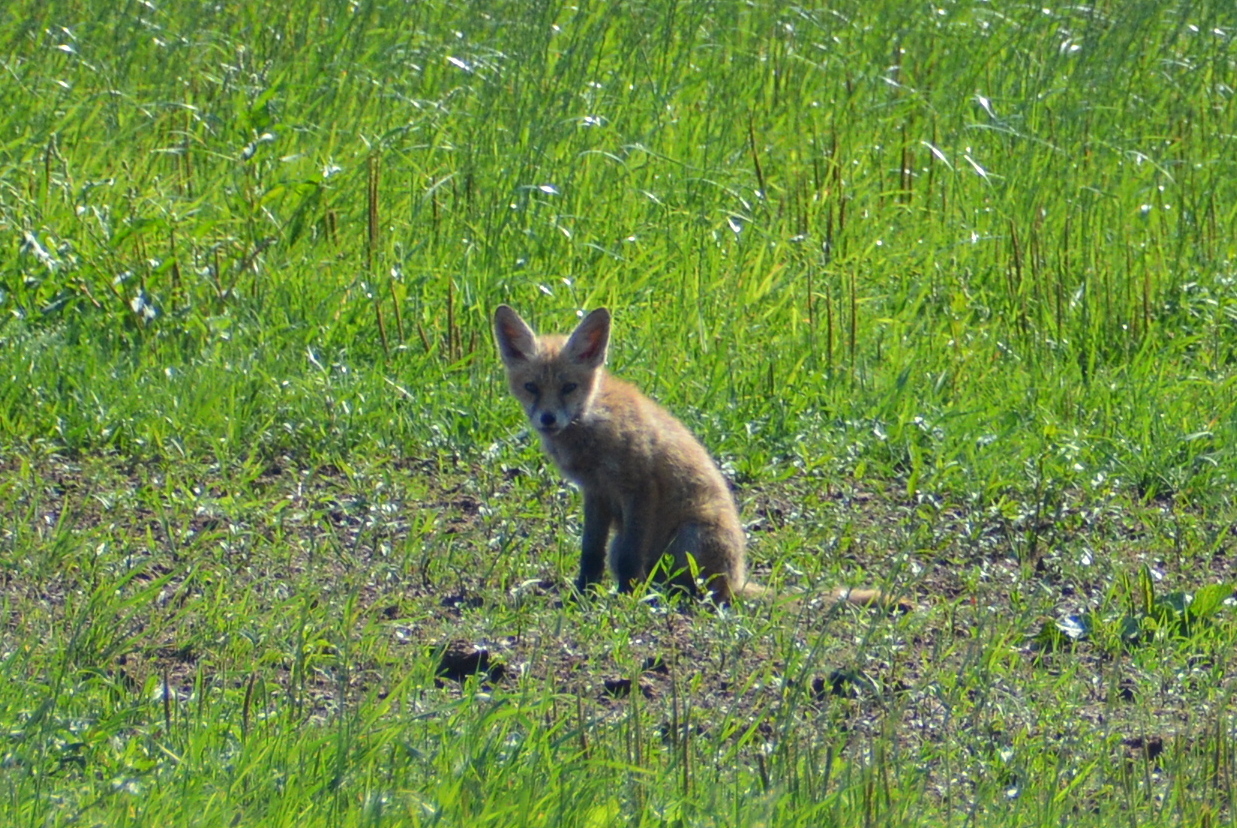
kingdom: Animalia
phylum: Chordata
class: Mammalia
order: Carnivora
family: Canidae
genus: Vulpes
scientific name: Vulpes vulpes
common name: Red fox
